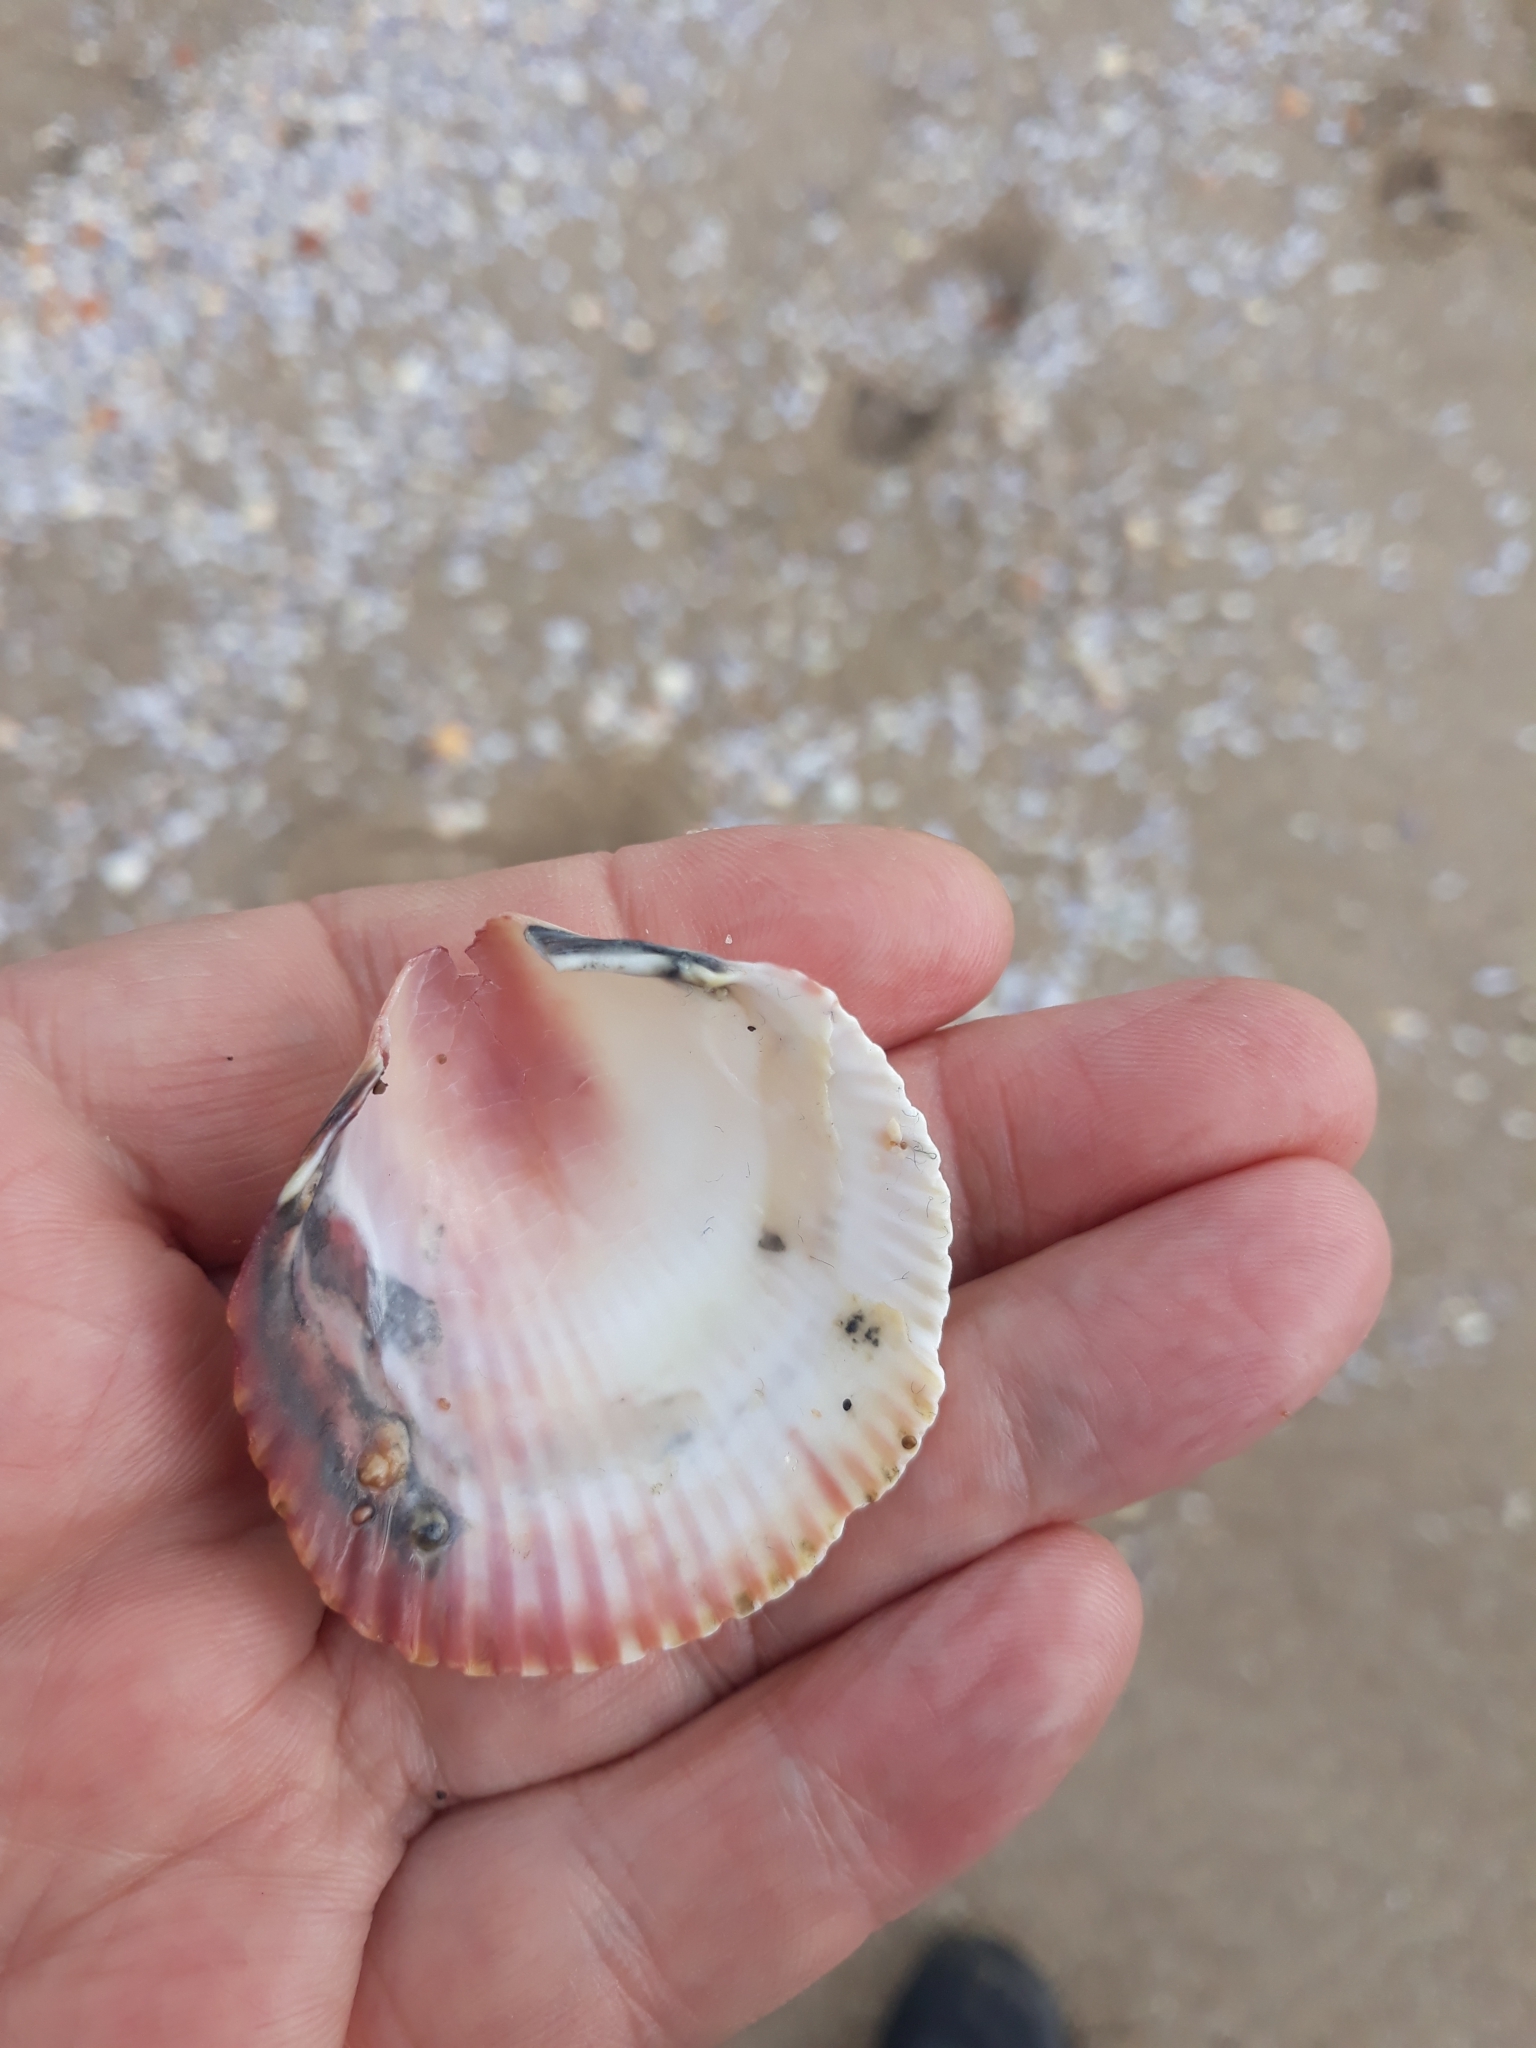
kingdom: Animalia
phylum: Mollusca
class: Bivalvia
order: Cardiida
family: Cardiidae
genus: Fulvia
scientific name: Fulvia fragilis
